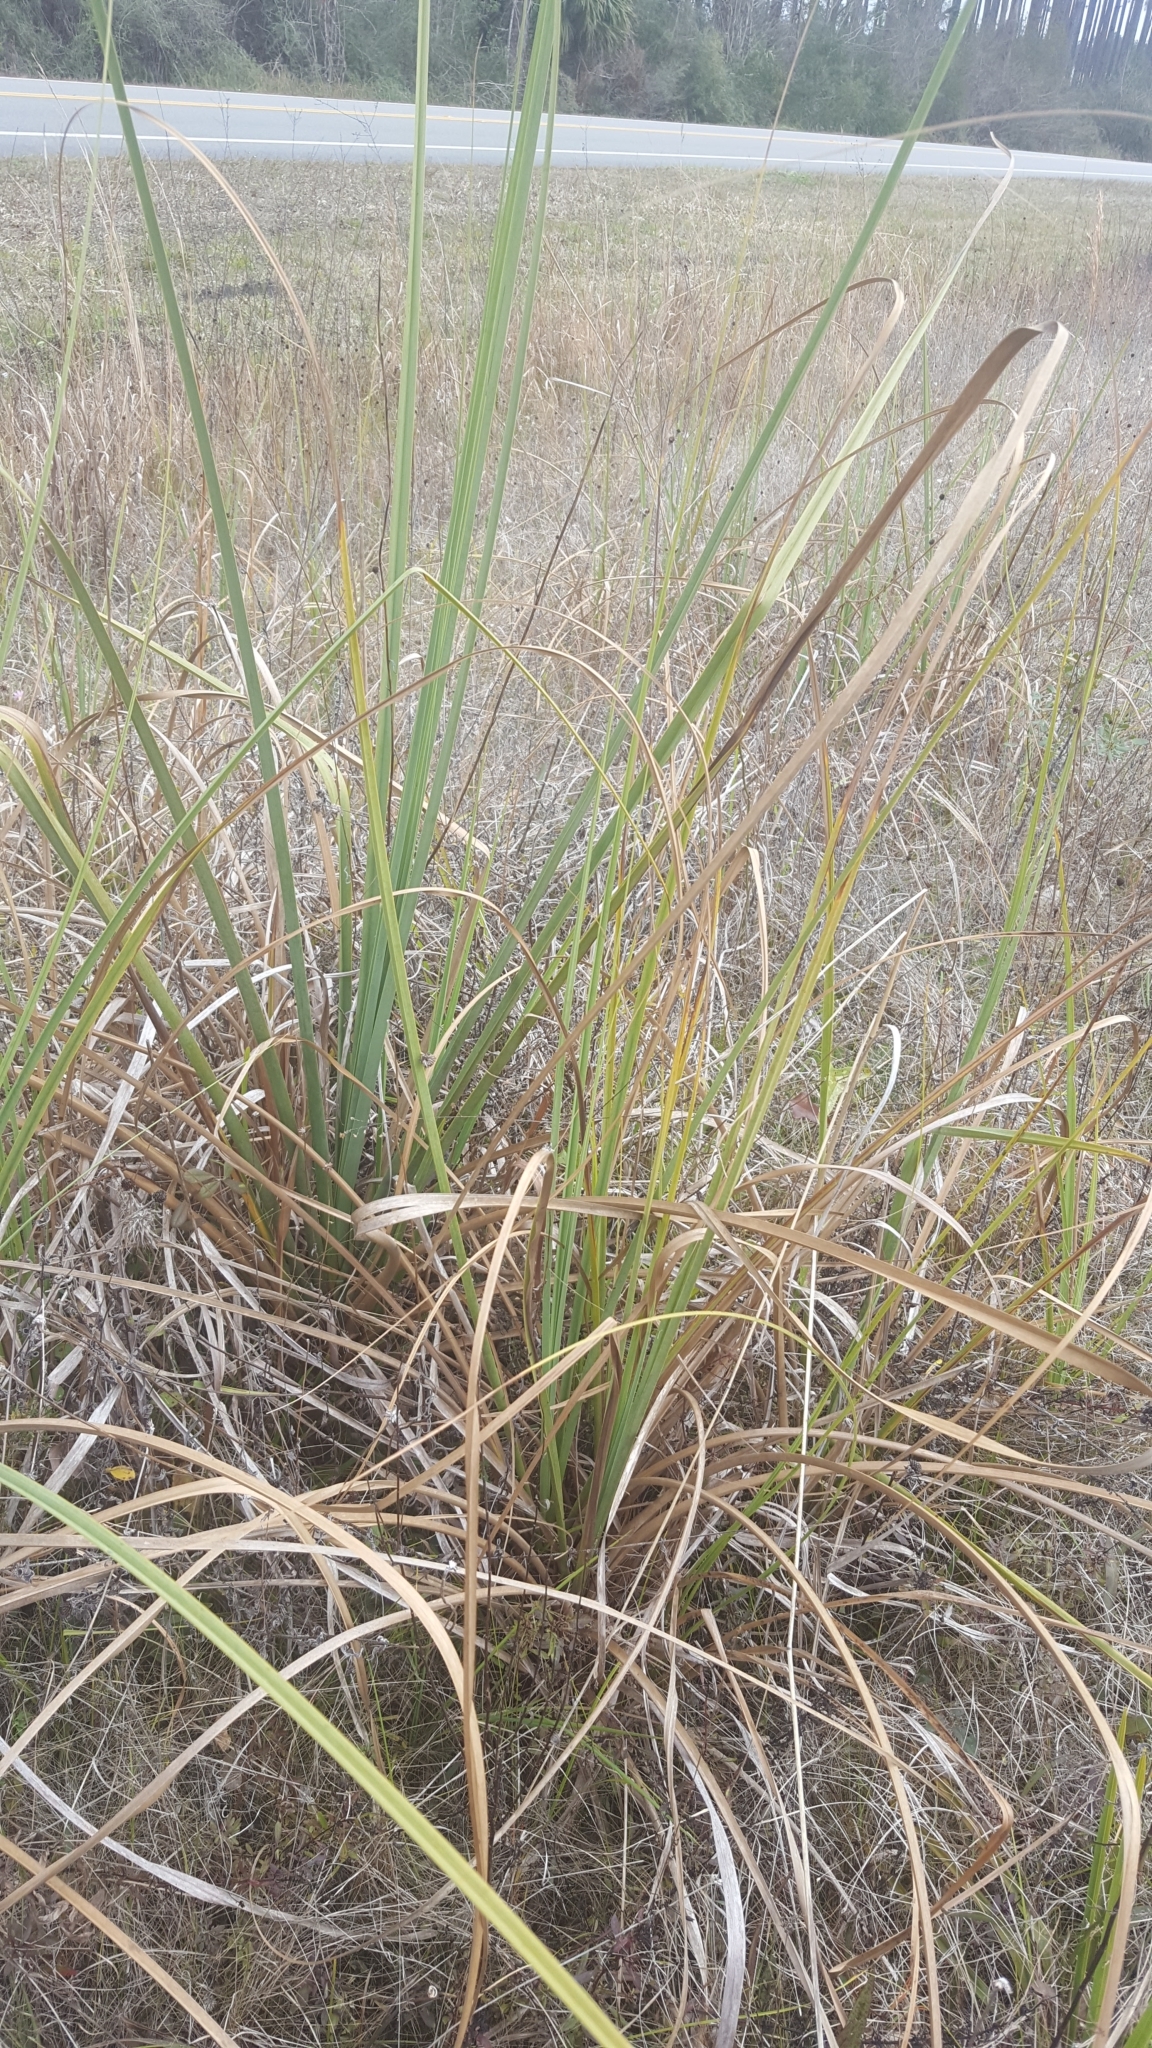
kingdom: Plantae
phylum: Tracheophyta
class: Liliopsida
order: Poales
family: Cyperaceae
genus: Cladium
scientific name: Cladium mariscus
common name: Great fen-sedge
